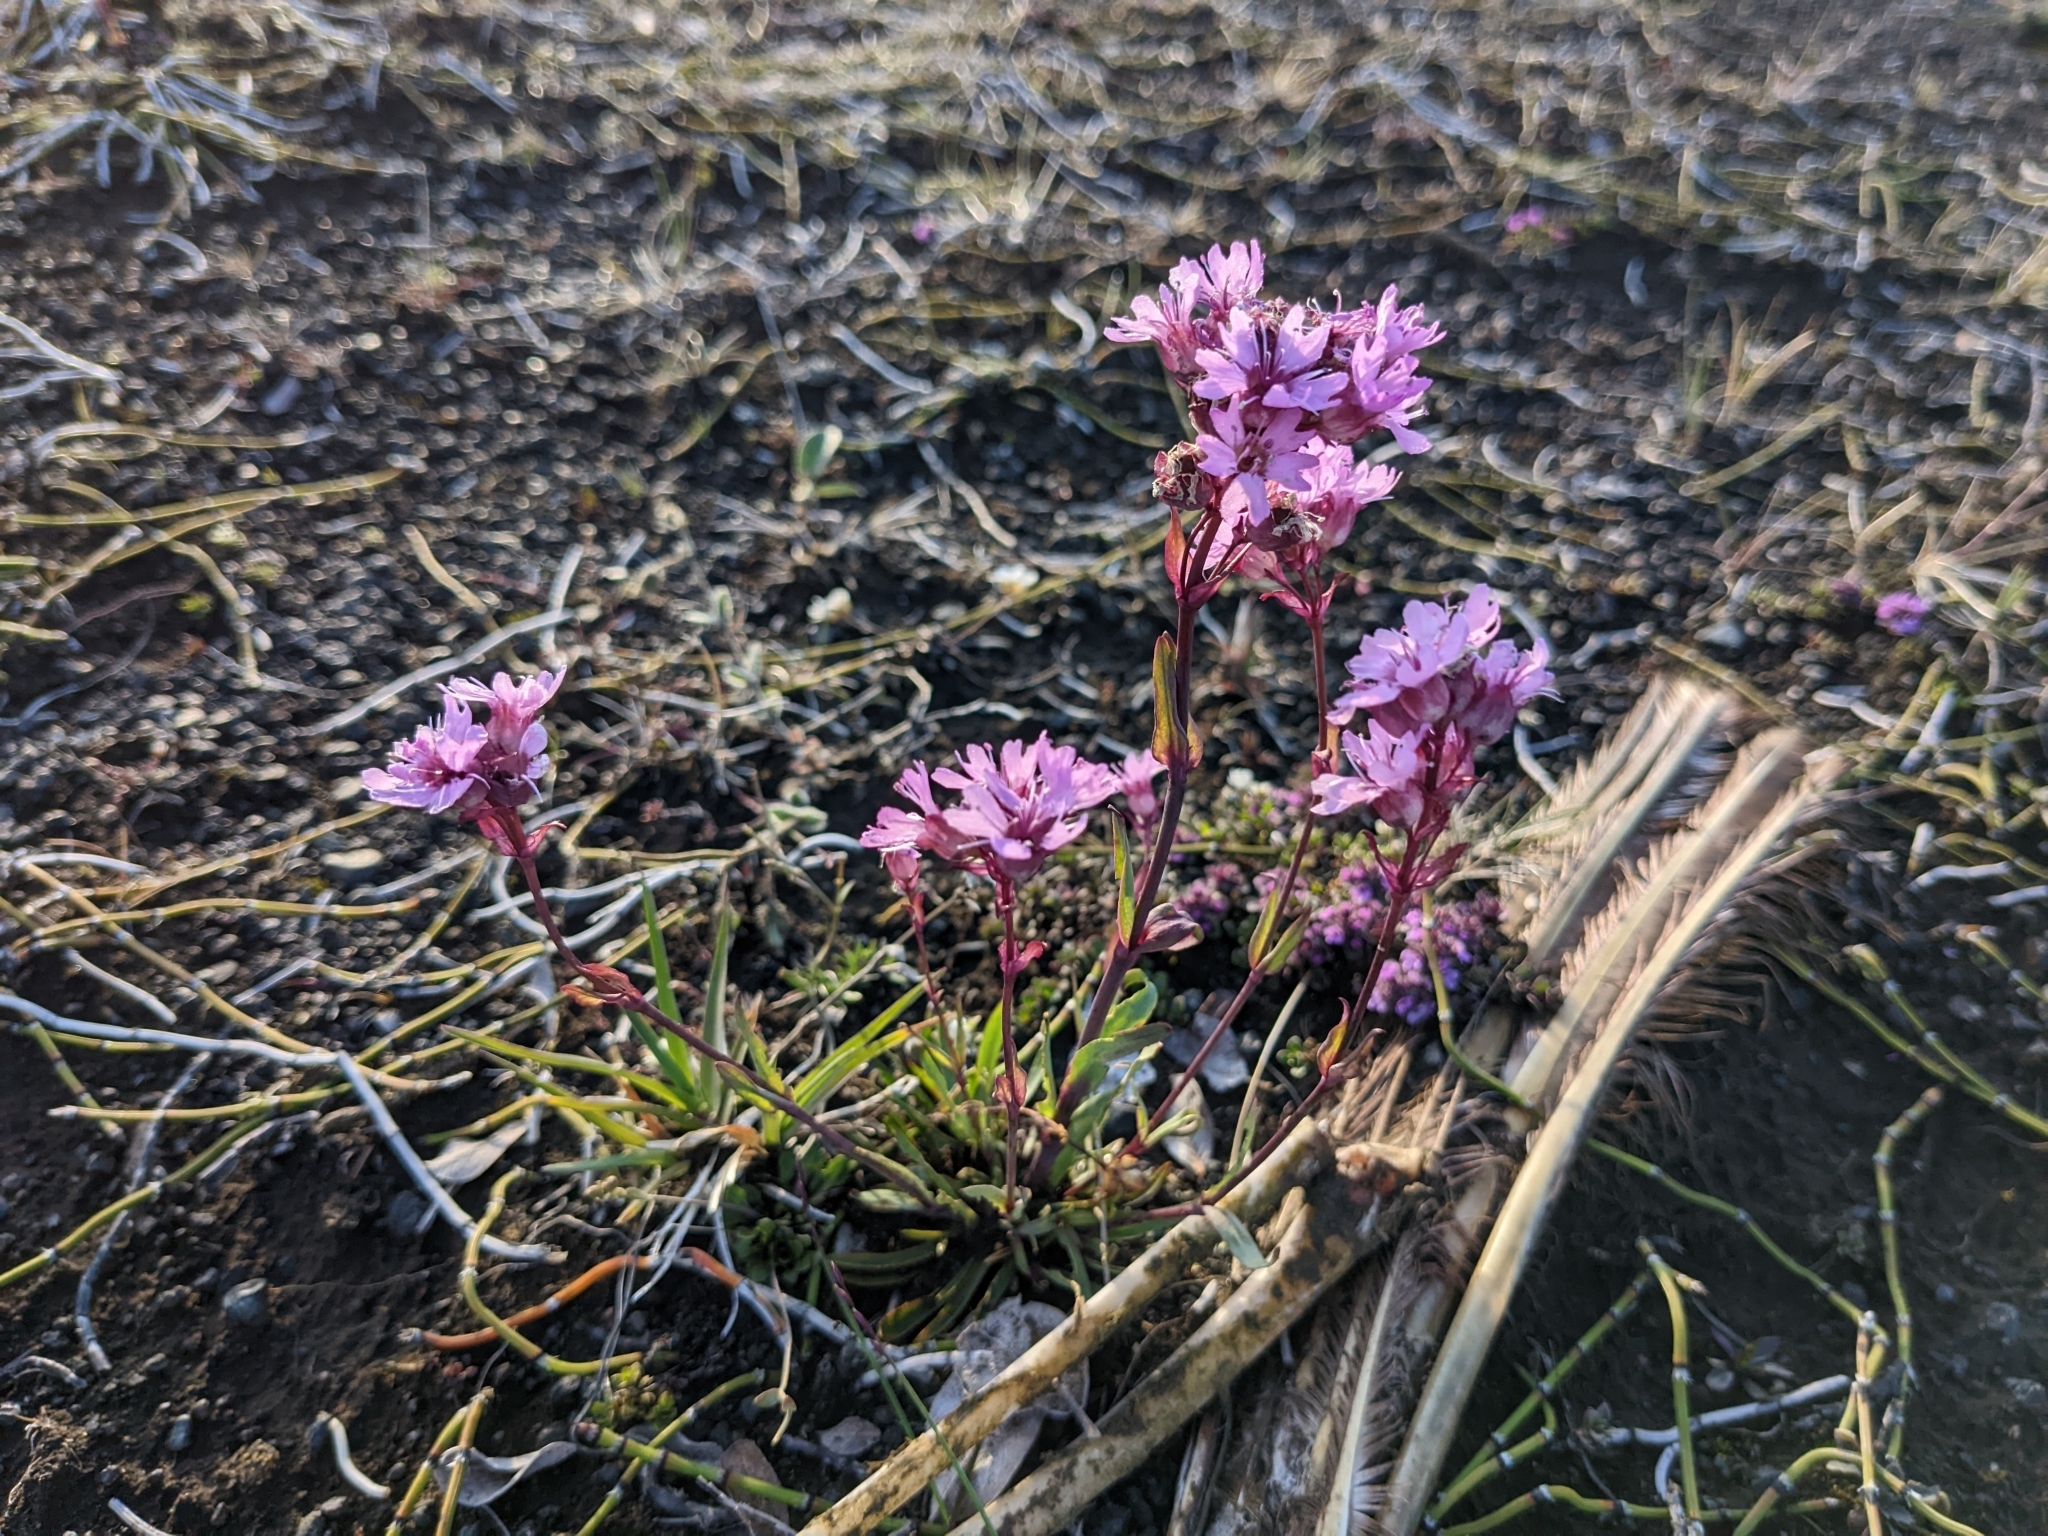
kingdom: Plantae
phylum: Tracheophyta
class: Magnoliopsida
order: Caryophyllales
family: Caryophyllaceae
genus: Viscaria
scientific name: Viscaria alpina
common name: Alpine campion
